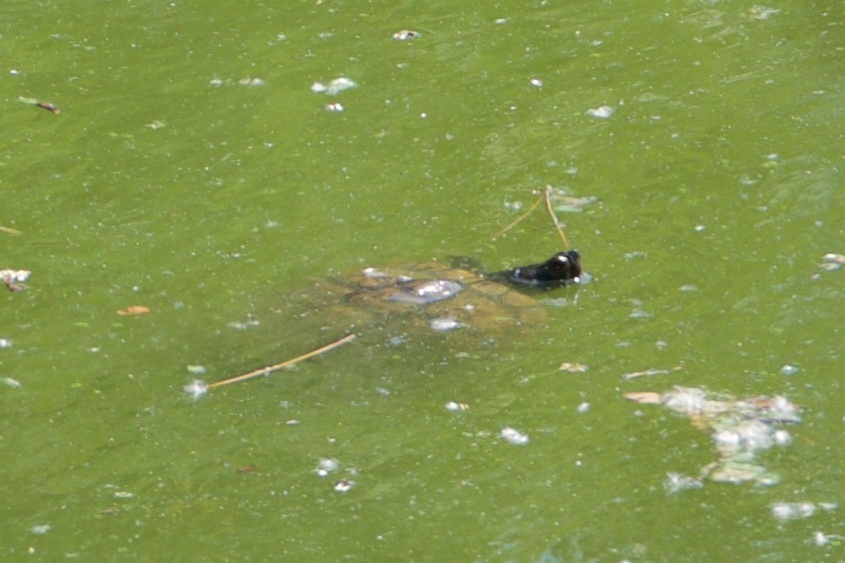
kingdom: Animalia
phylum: Chordata
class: Testudines
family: Emydidae
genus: Trachemys
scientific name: Trachemys scripta
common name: Slider
